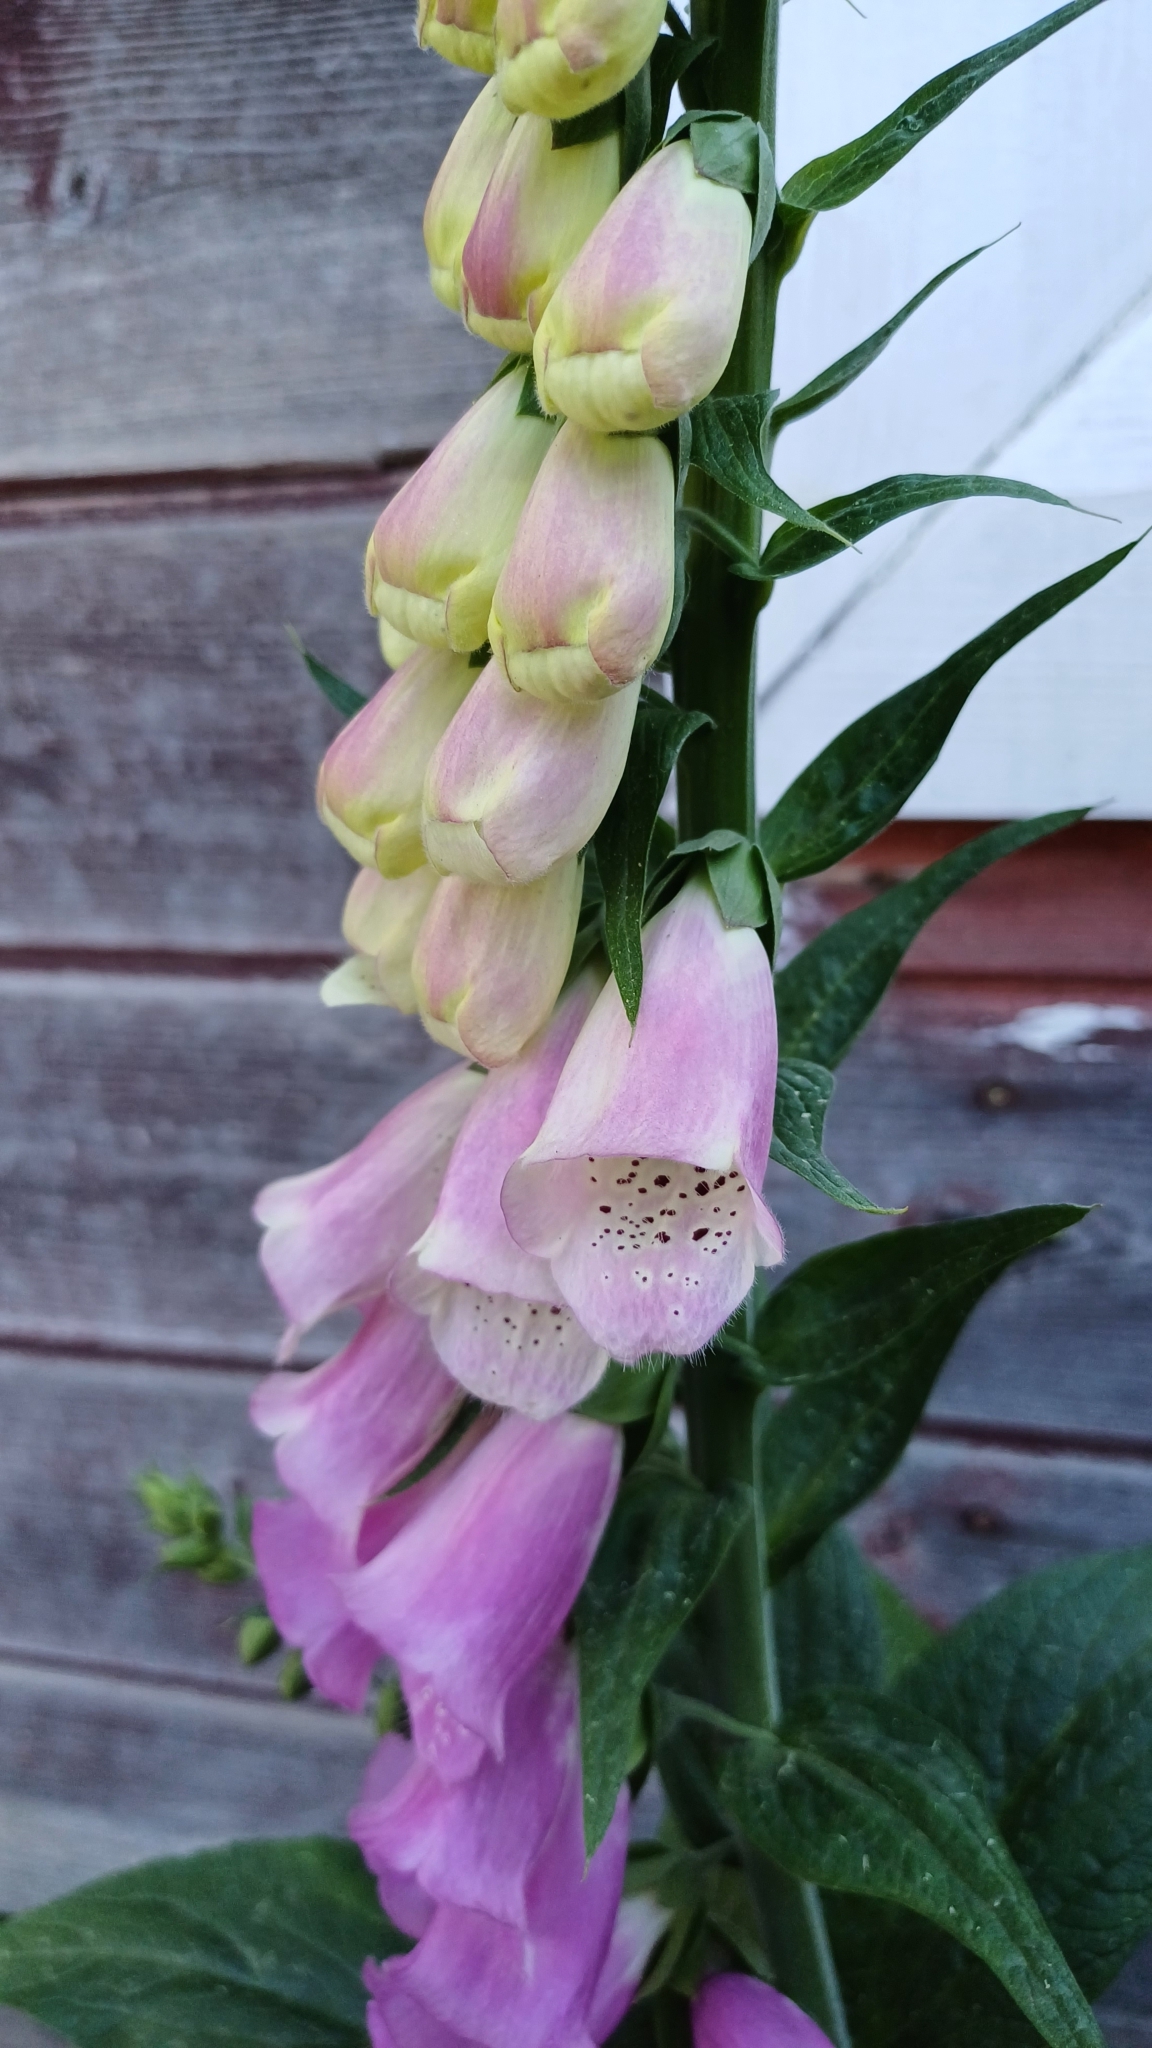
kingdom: Plantae
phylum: Tracheophyta
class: Magnoliopsida
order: Lamiales
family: Plantaginaceae
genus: Digitalis
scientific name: Digitalis purpurea
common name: Foxglove
